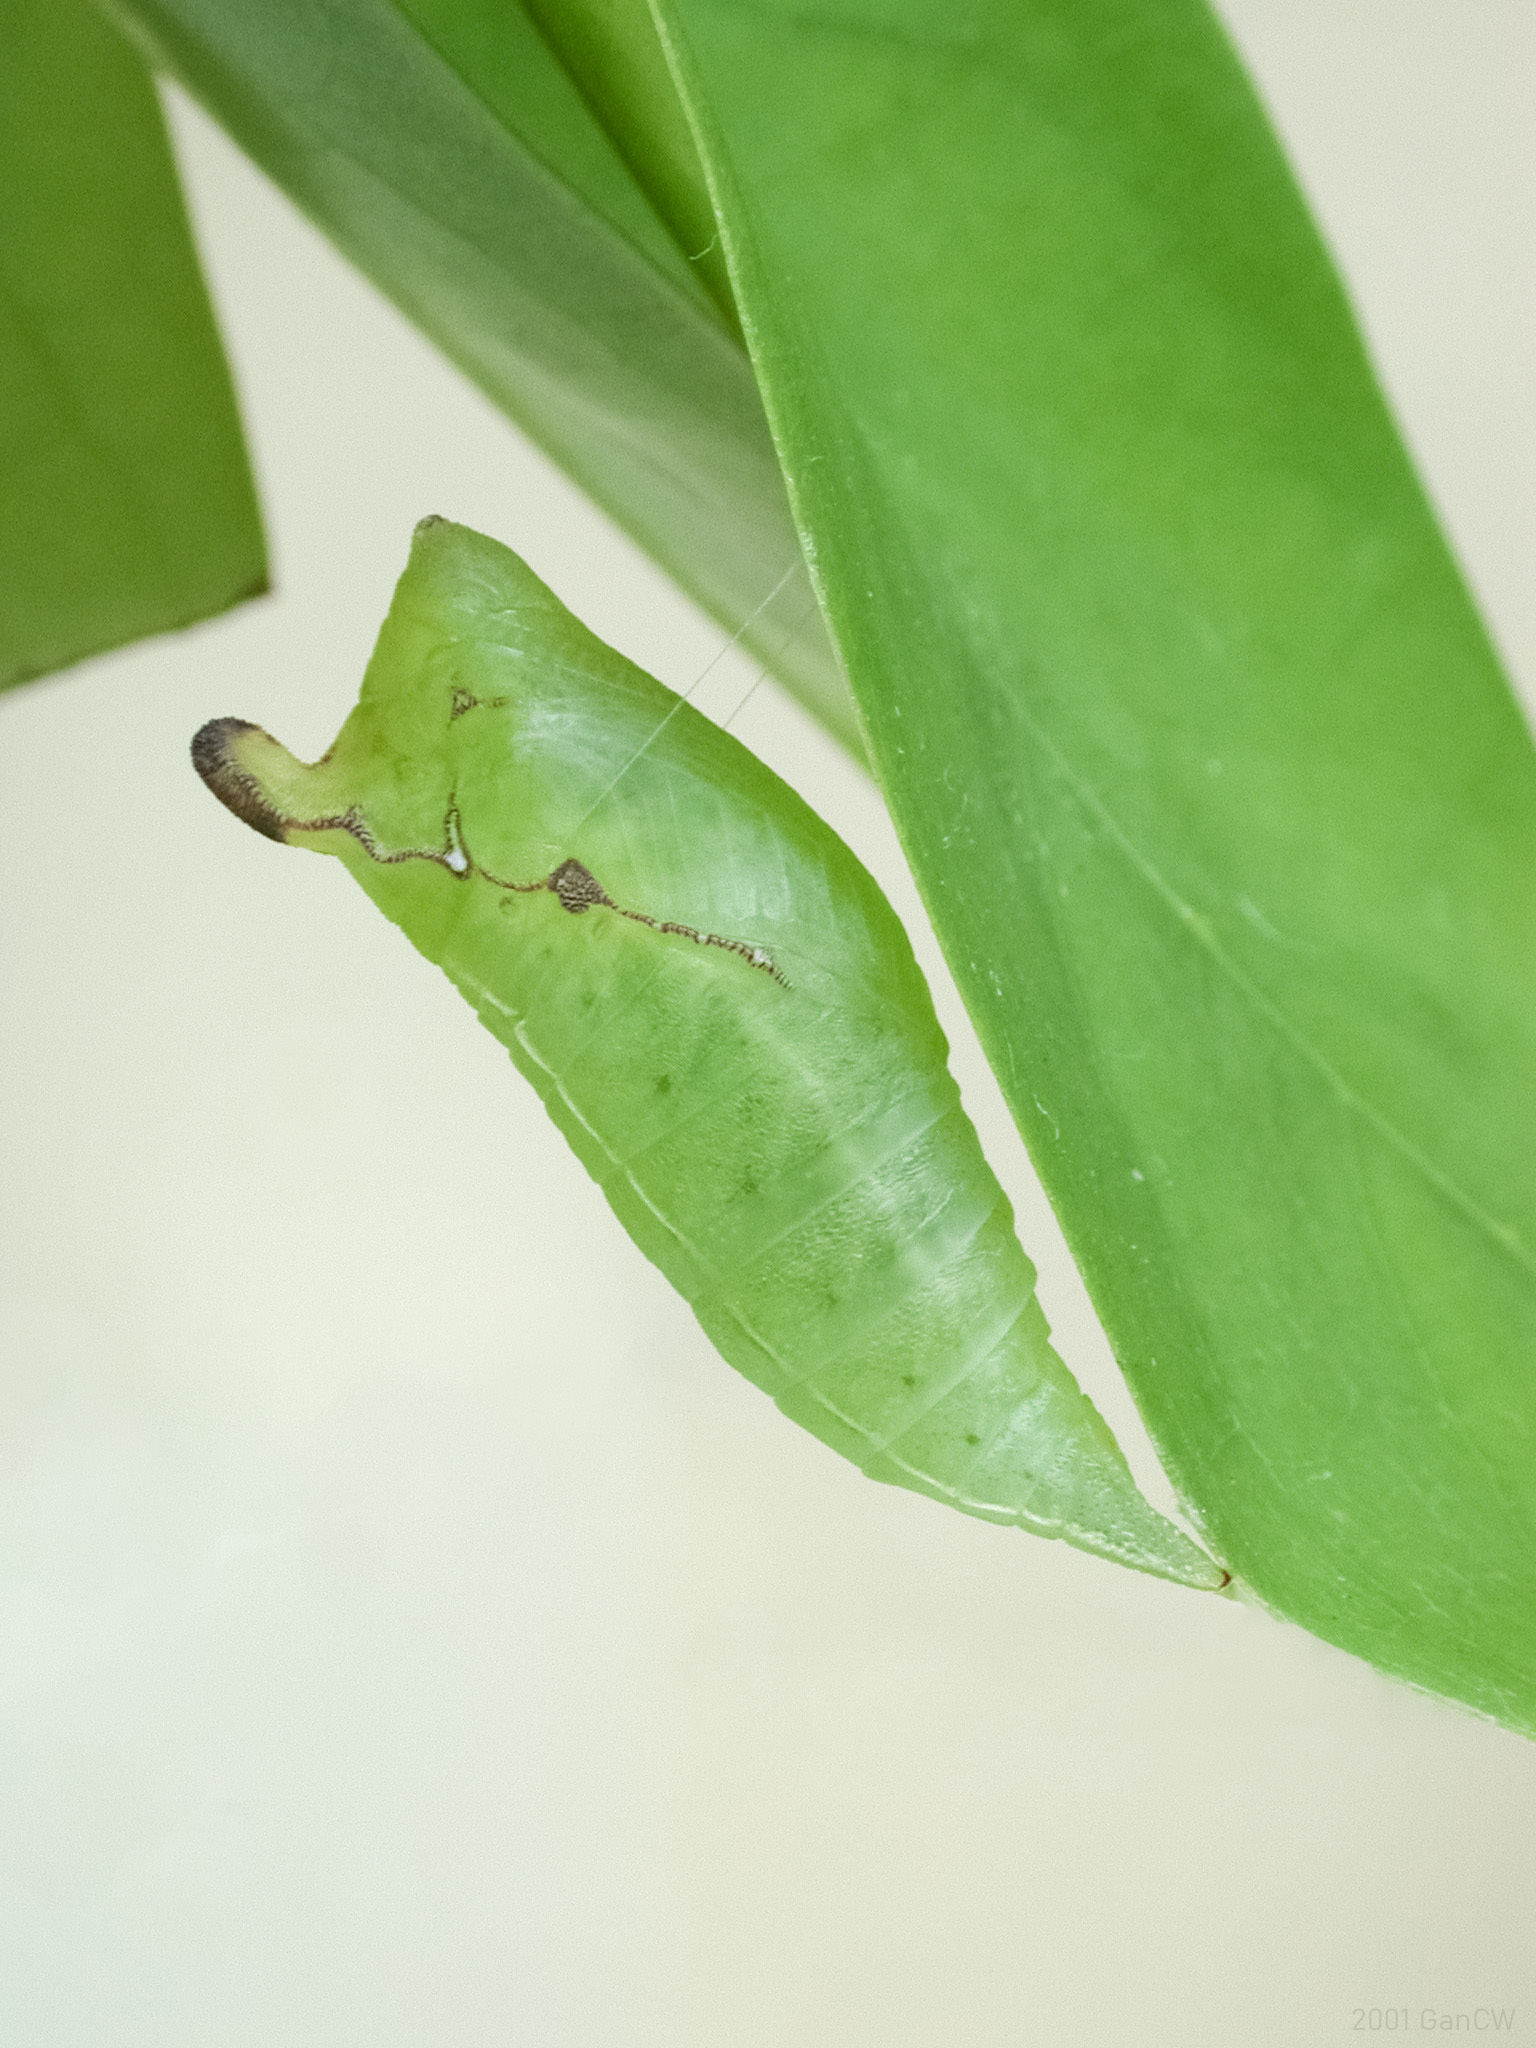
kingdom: Animalia
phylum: Arthropoda
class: Insecta
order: Lepidoptera
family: Papilionidae
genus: Graphium
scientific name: Graphium agamemnon
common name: Tailed jay
